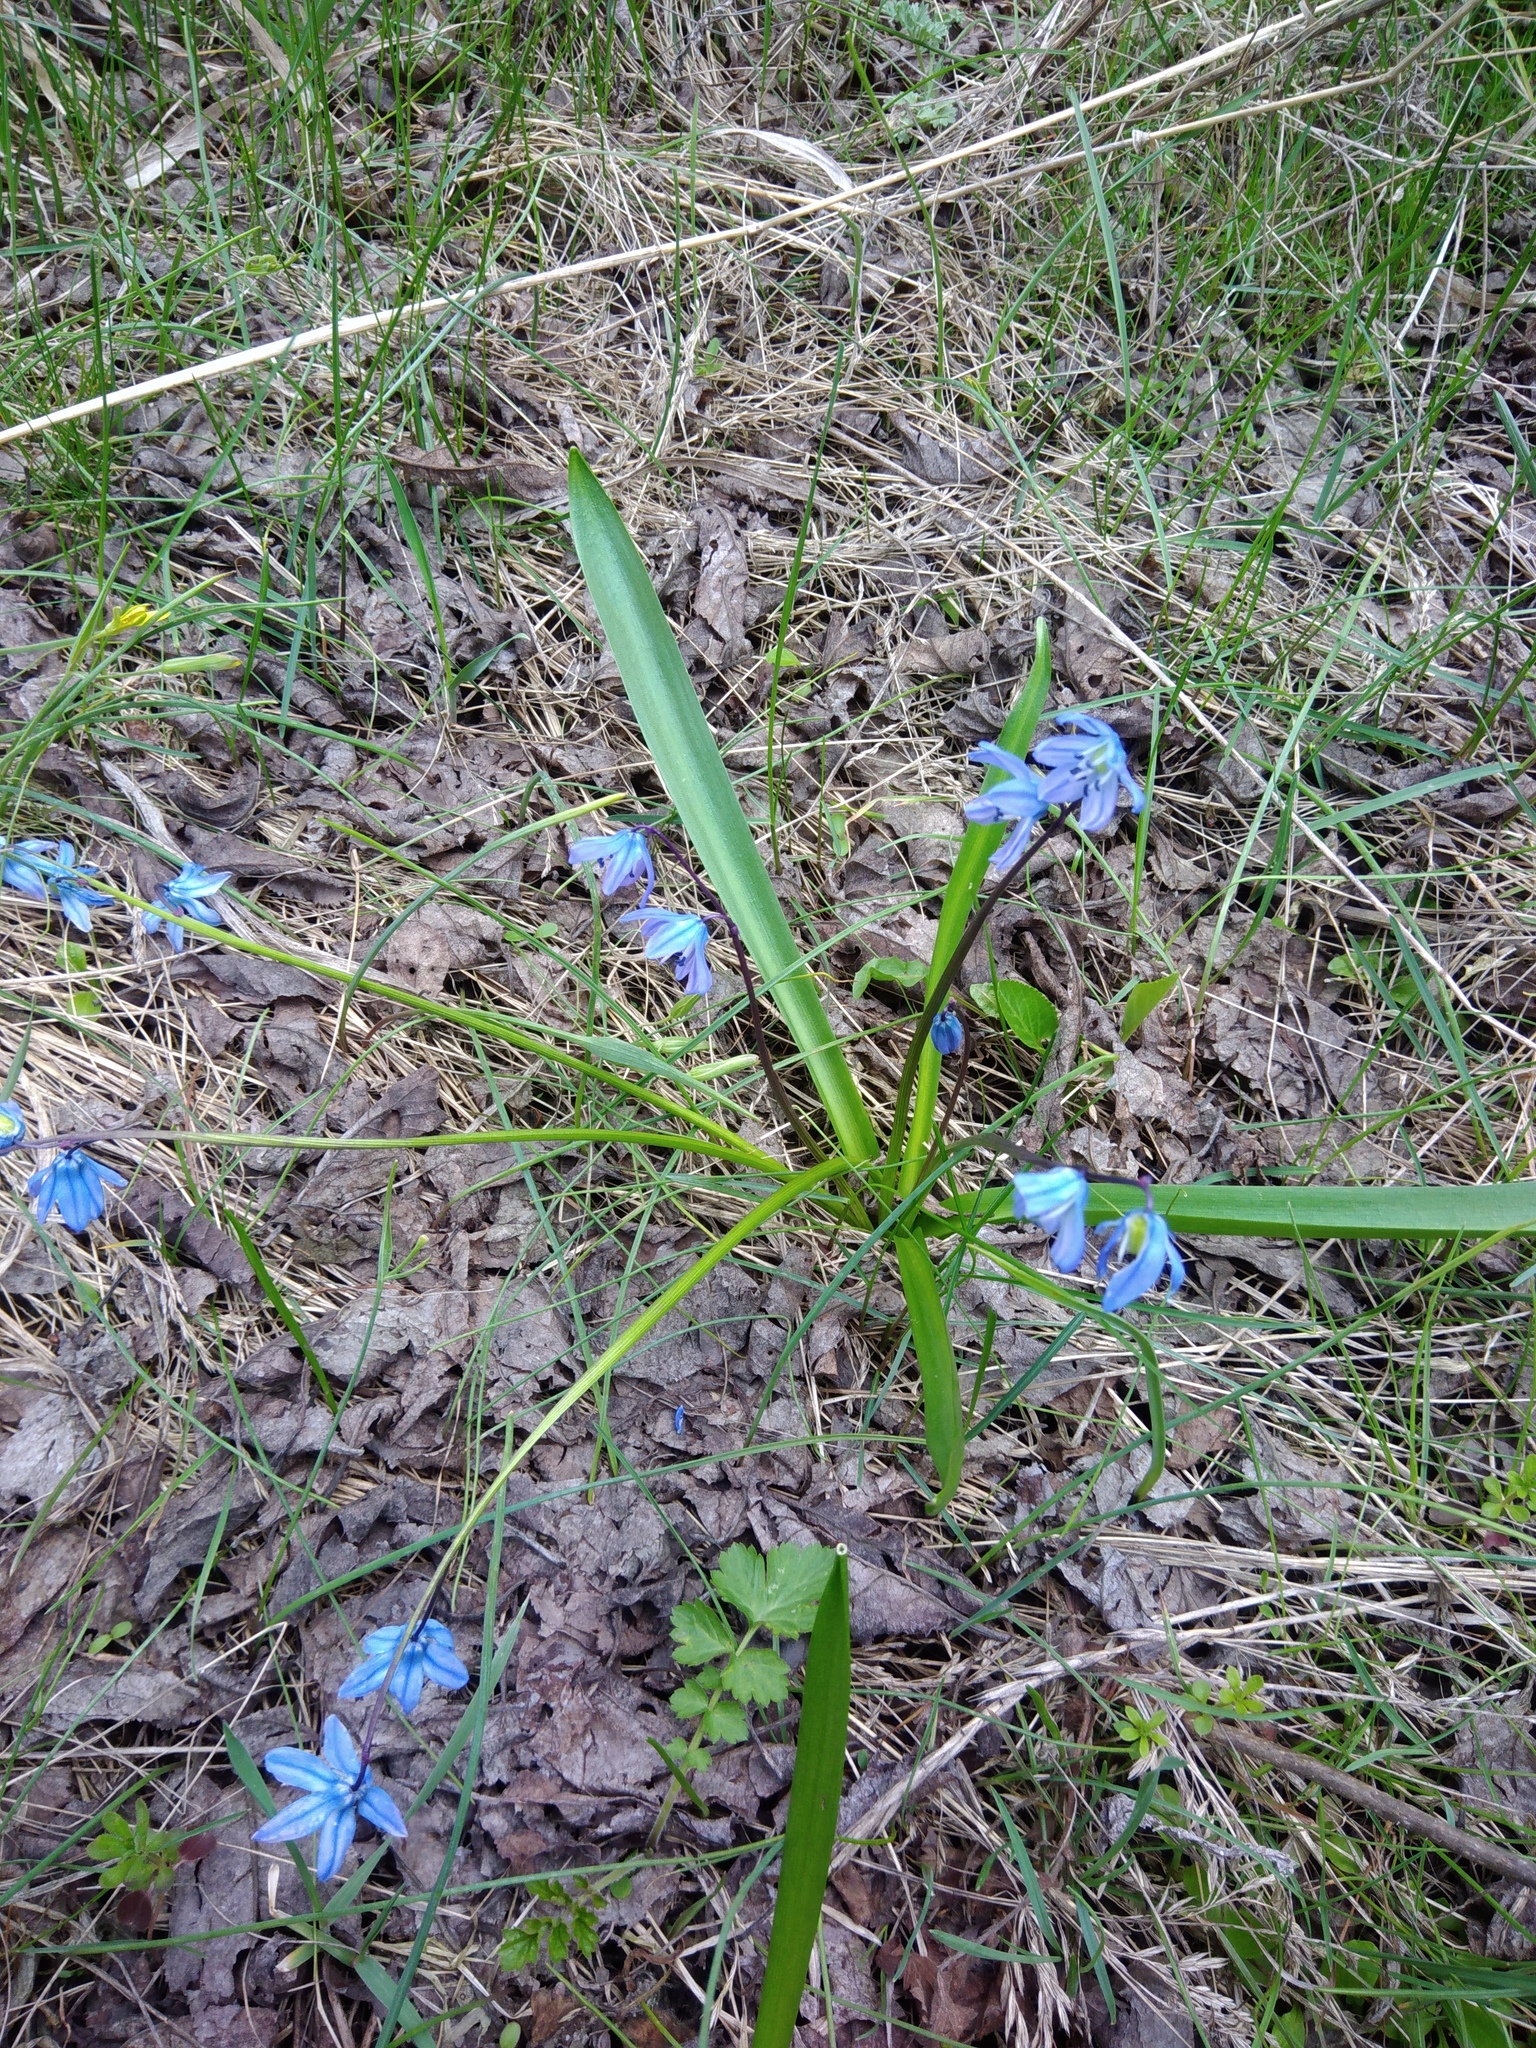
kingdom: Plantae
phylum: Tracheophyta
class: Liliopsida
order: Asparagales
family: Asparagaceae
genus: Scilla
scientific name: Scilla siberica
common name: Siberian squill
